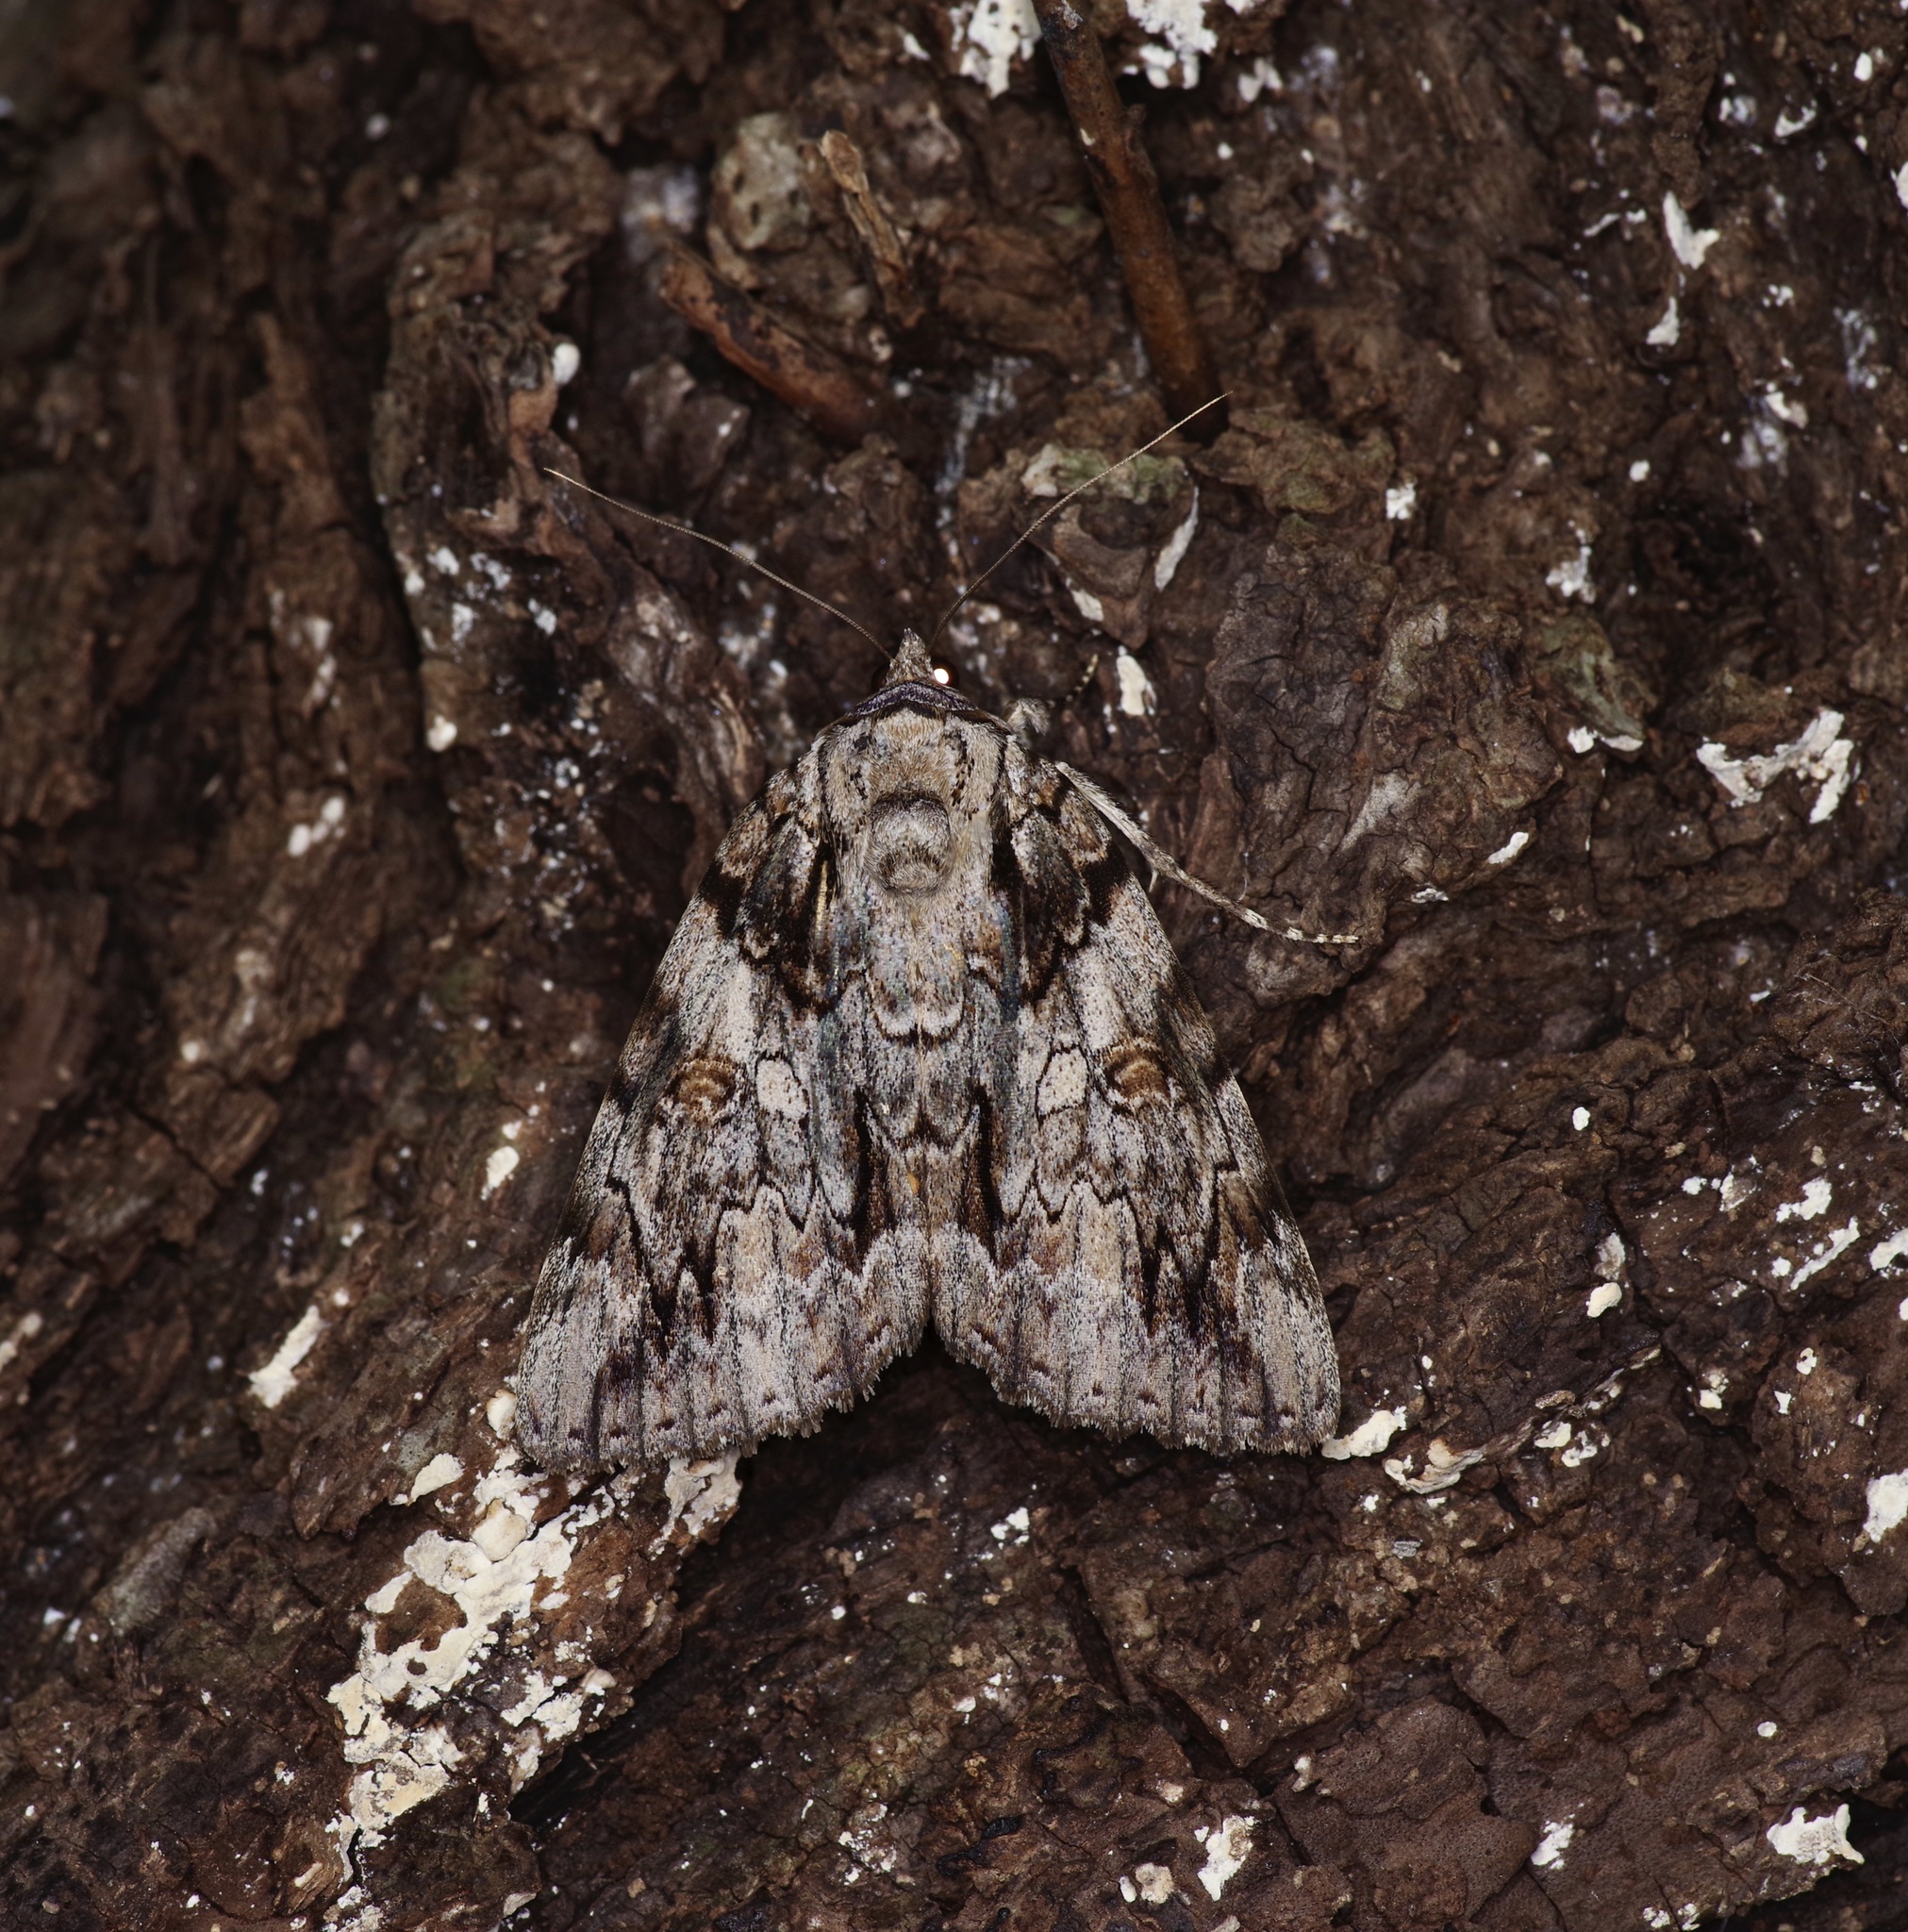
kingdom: Animalia
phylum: Arthropoda
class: Insecta
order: Lepidoptera
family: Erebidae
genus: Catocala
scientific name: Catocala neogama
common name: Bride underwing
